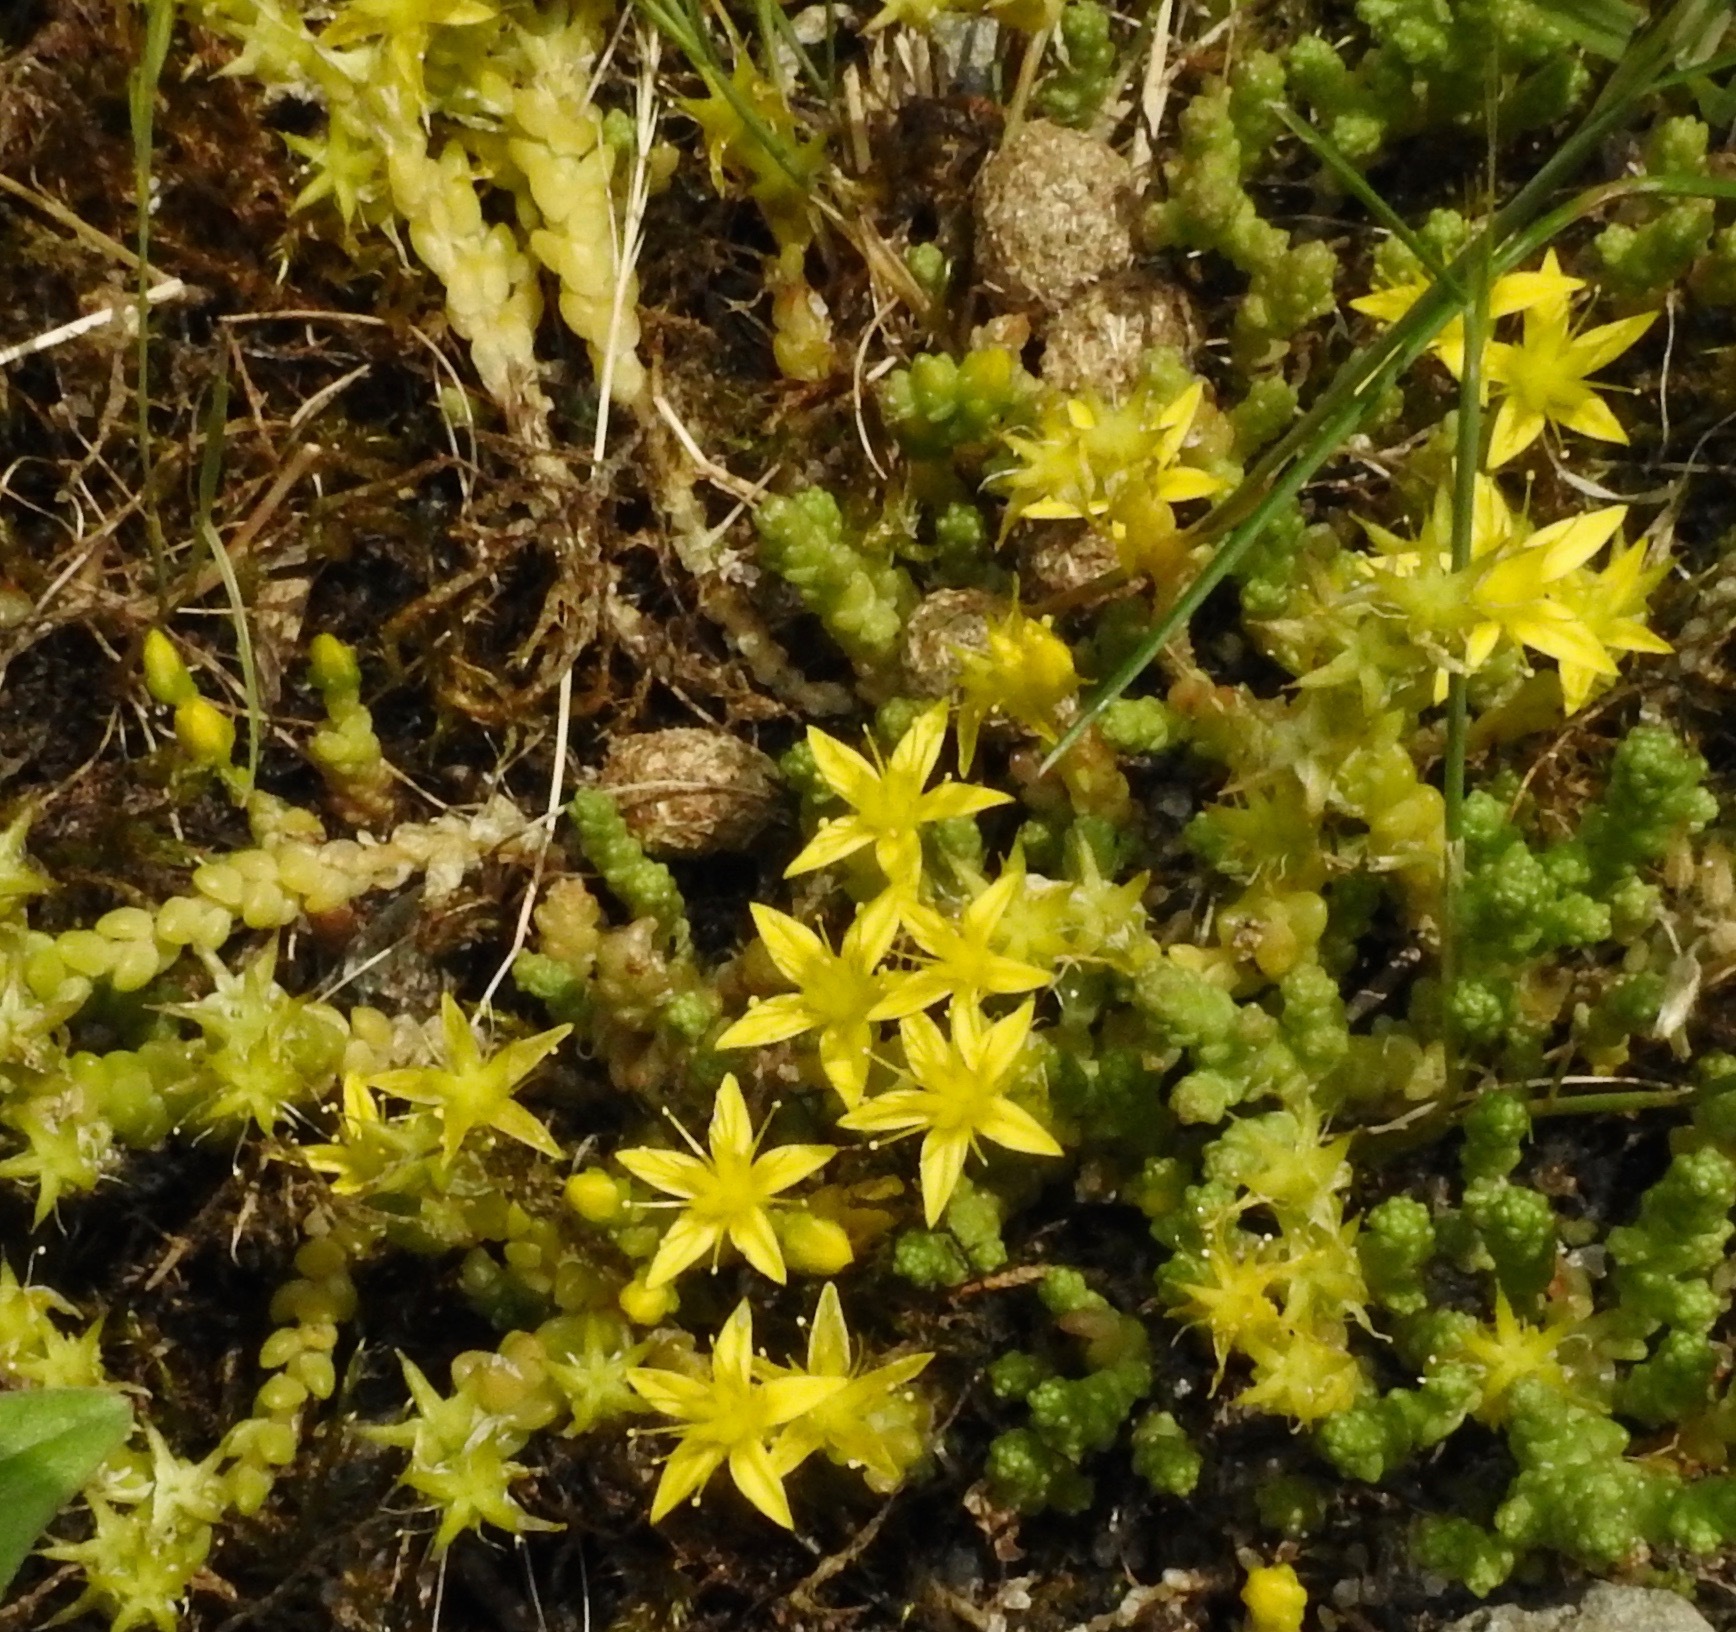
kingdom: Plantae
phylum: Tracheophyta
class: Magnoliopsida
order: Saxifragales
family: Crassulaceae
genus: Sedum
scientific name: Sedum acre
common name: Biting stonecrop
